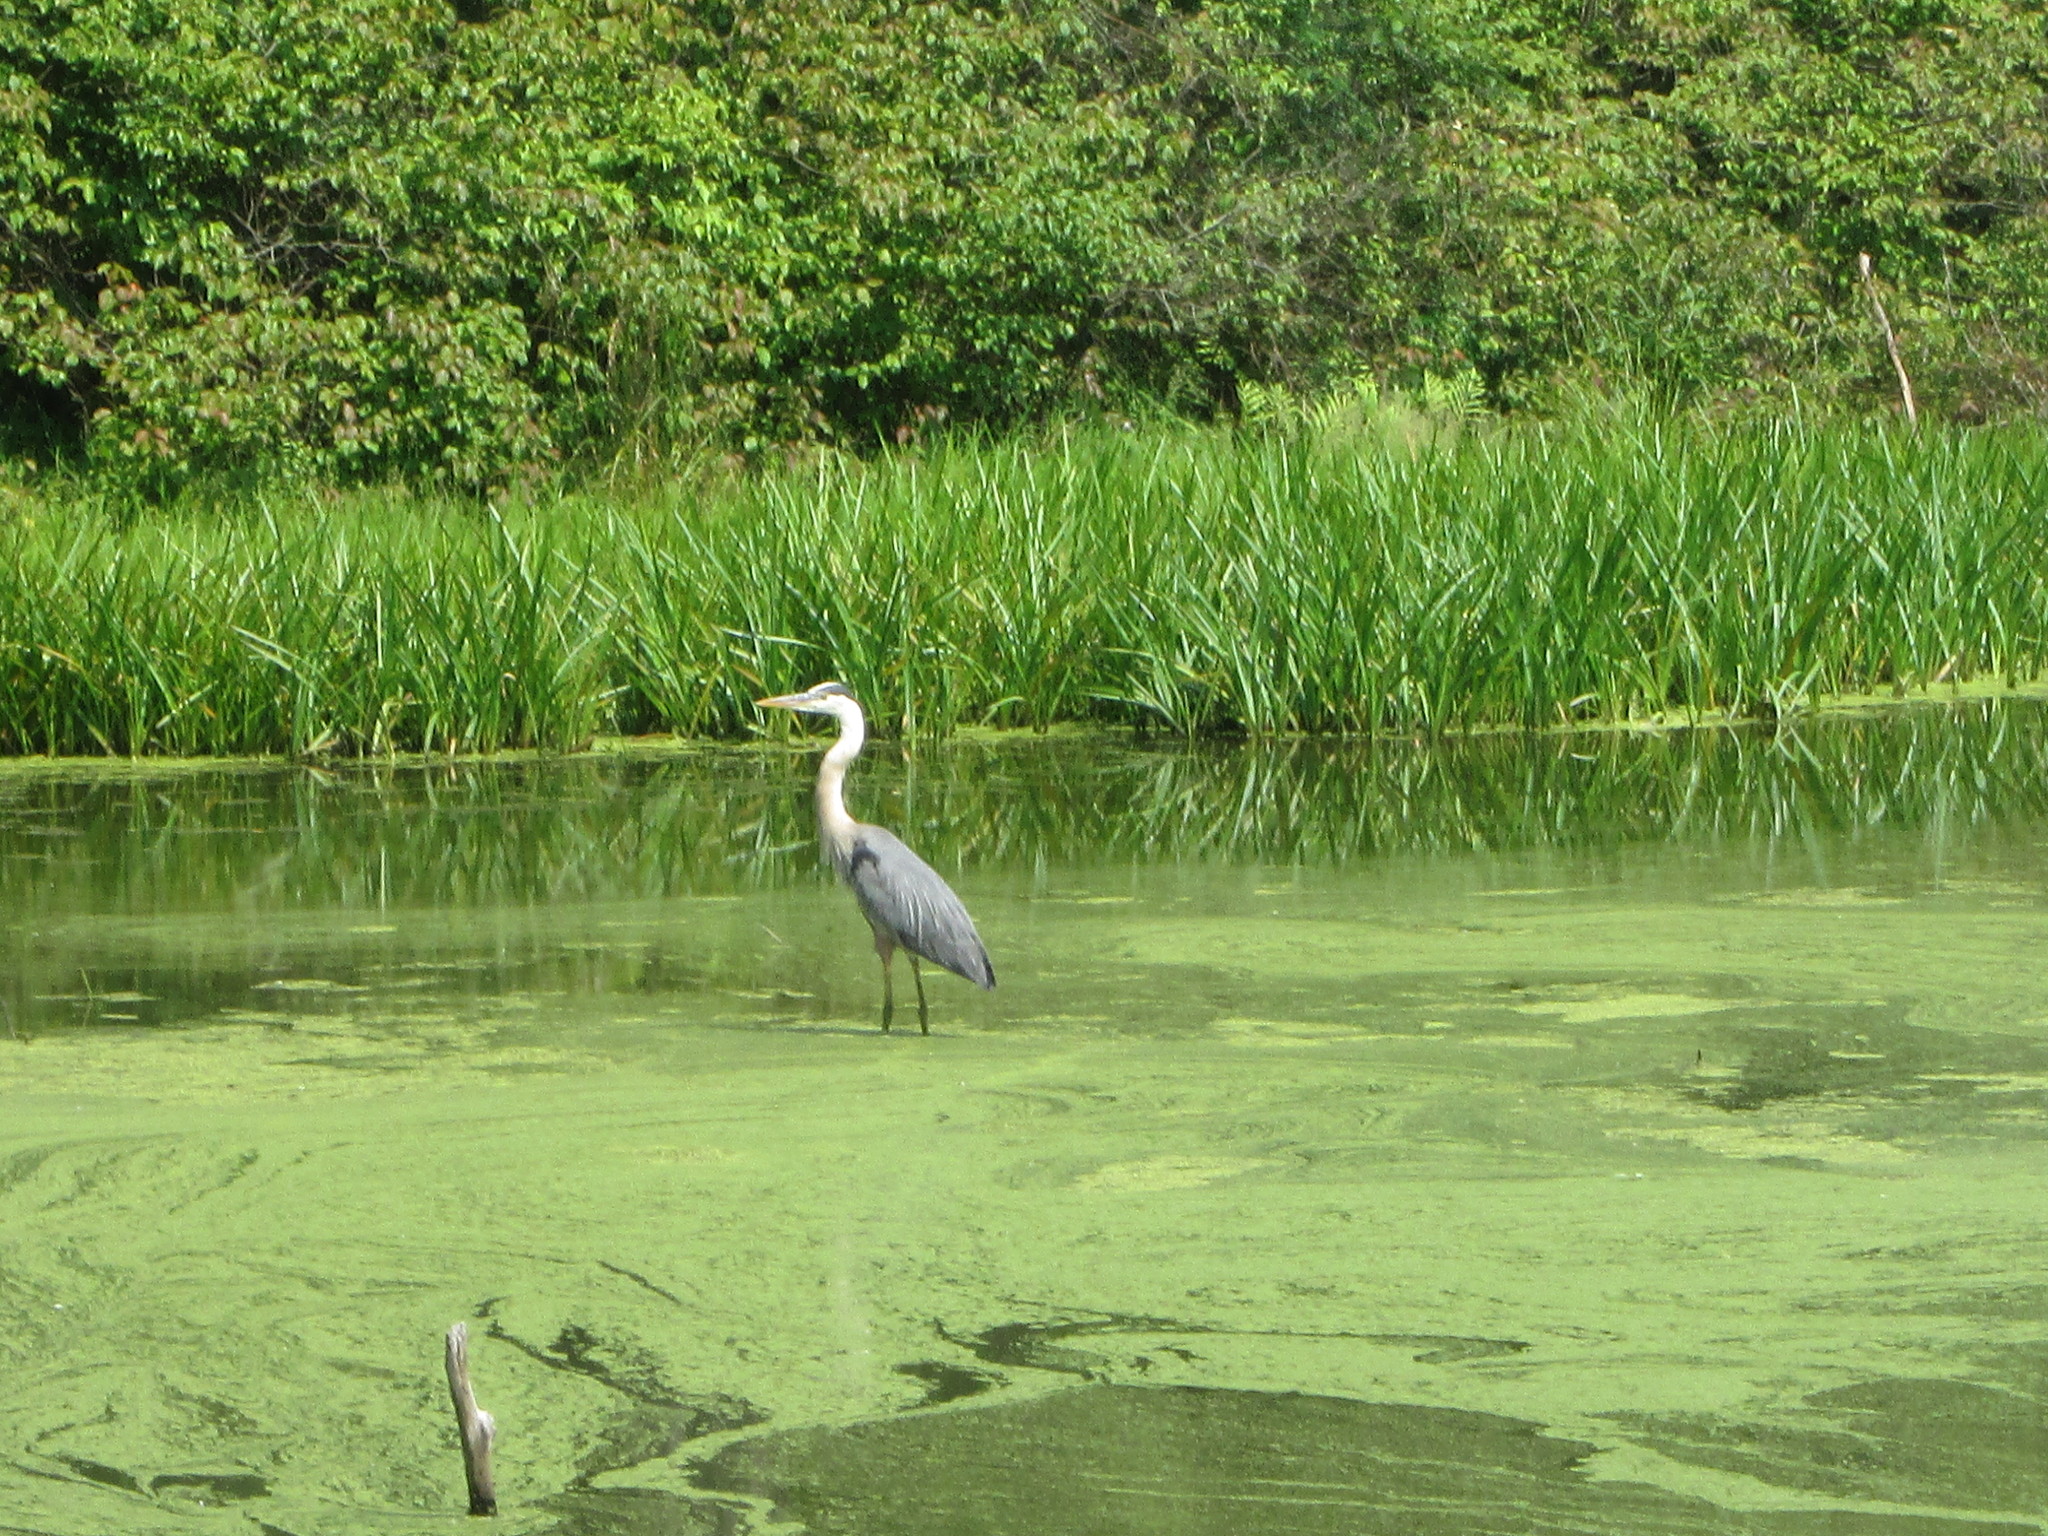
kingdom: Animalia
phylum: Chordata
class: Aves
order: Pelecaniformes
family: Ardeidae
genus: Ardea
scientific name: Ardea herodias
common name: Great blue heron
